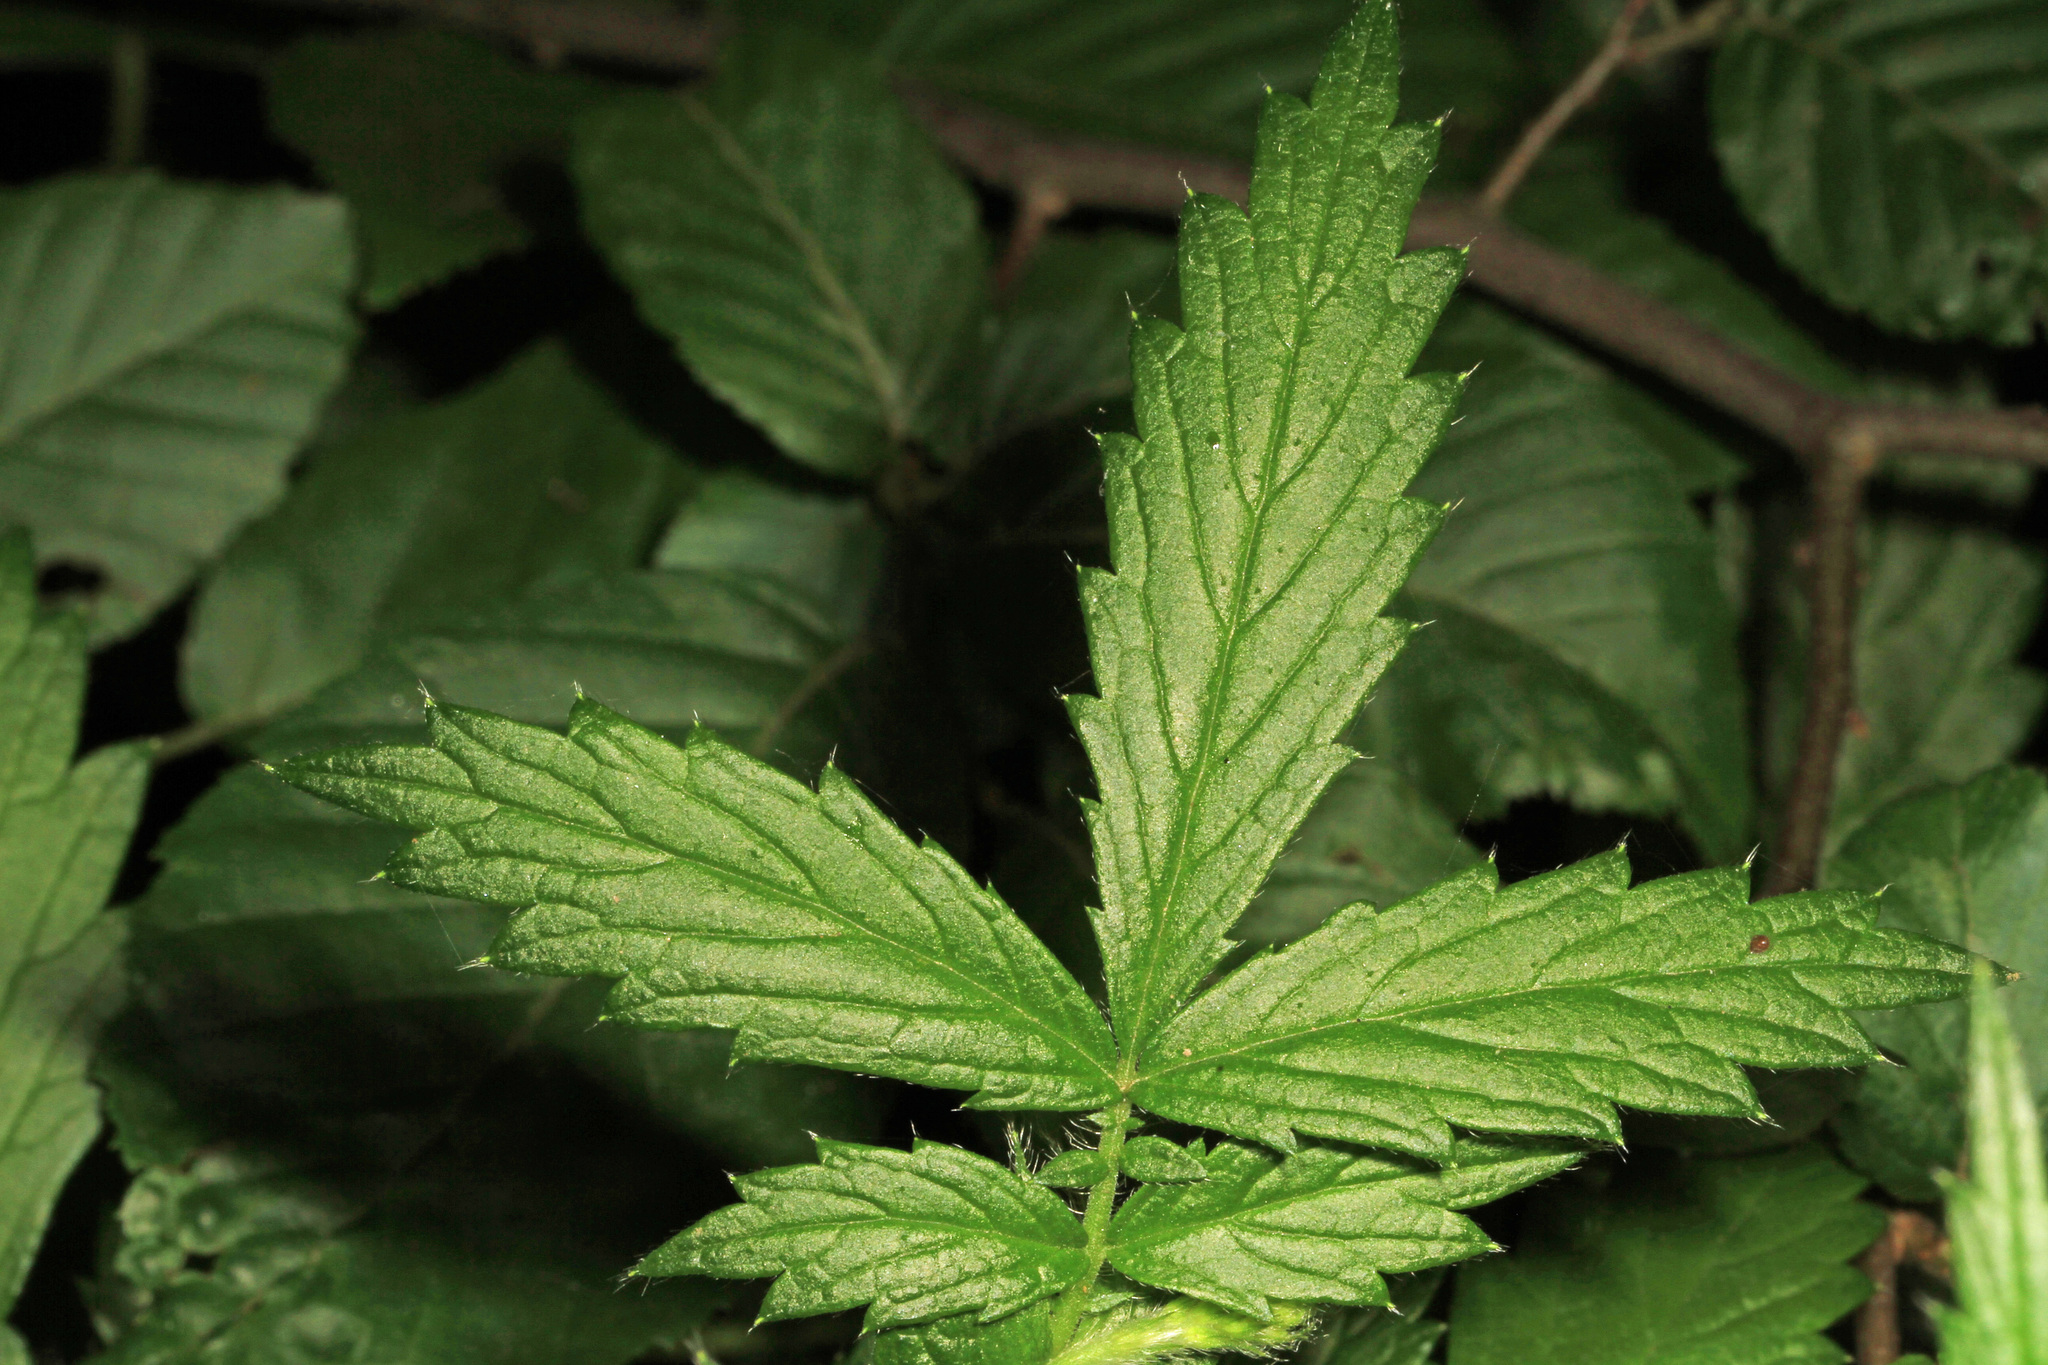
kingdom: Plantae
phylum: Tracheophyta
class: Magnoliopsida
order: Rosales
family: Rosaceae
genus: Agrimonia
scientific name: Agrimonia parviflora
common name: Harvest-lice
